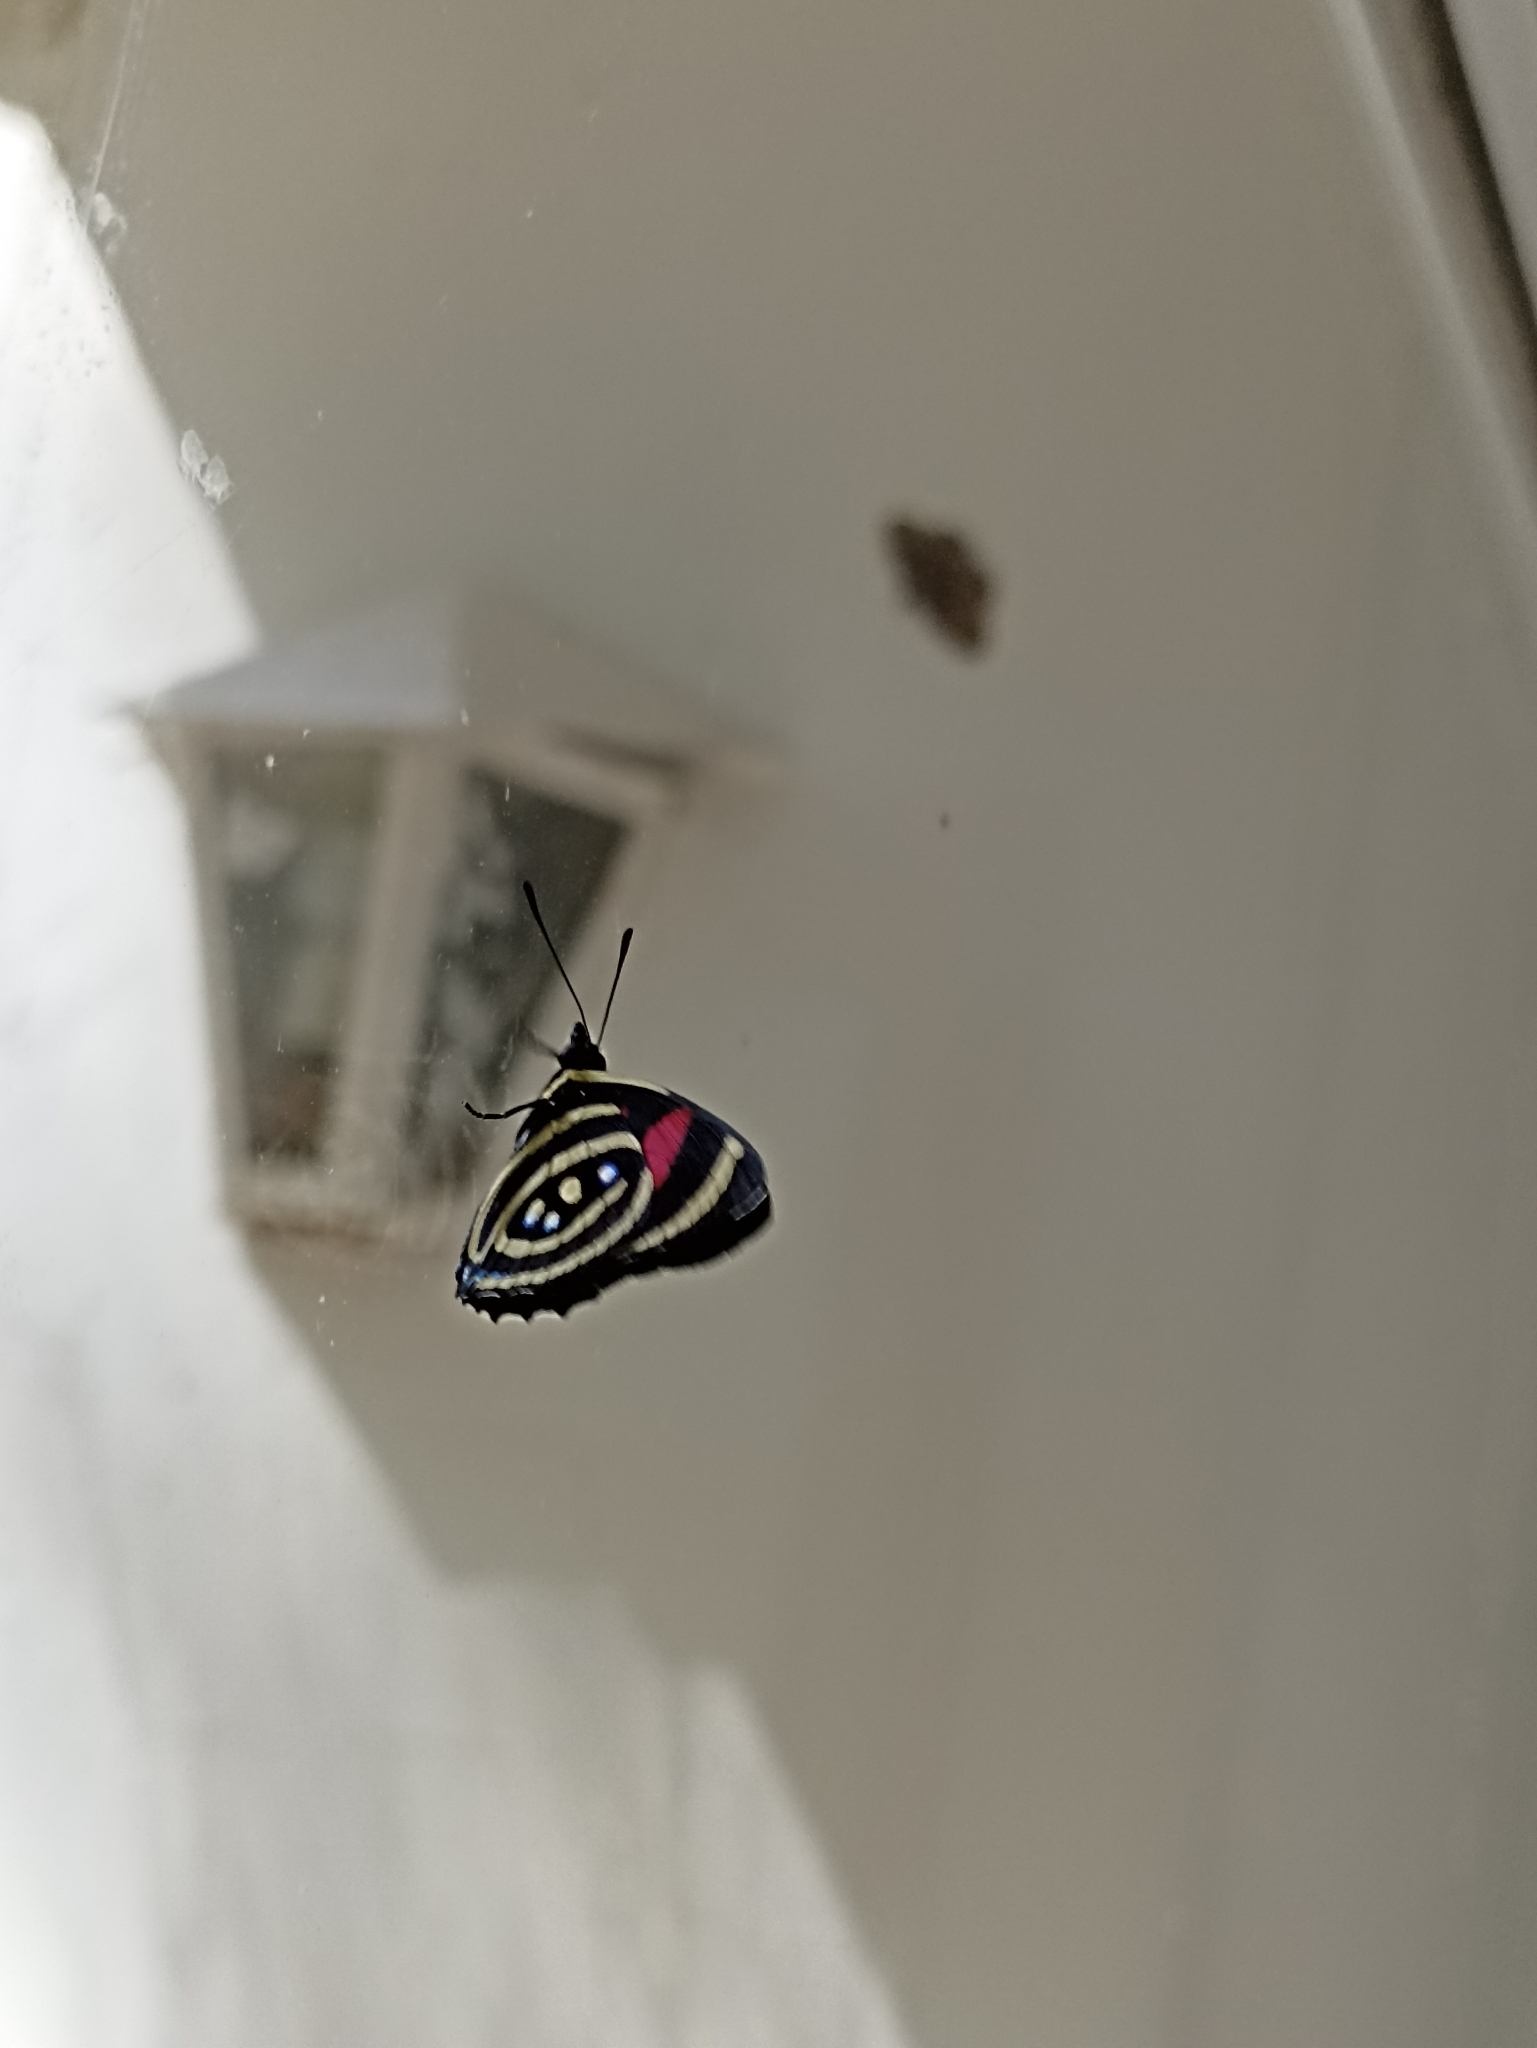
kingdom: Animalia
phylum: Arthropoda
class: Insecta
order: Lepidoptera
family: Nymphalidae
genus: Catagramma
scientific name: Catagramma Callicore hydaspes
